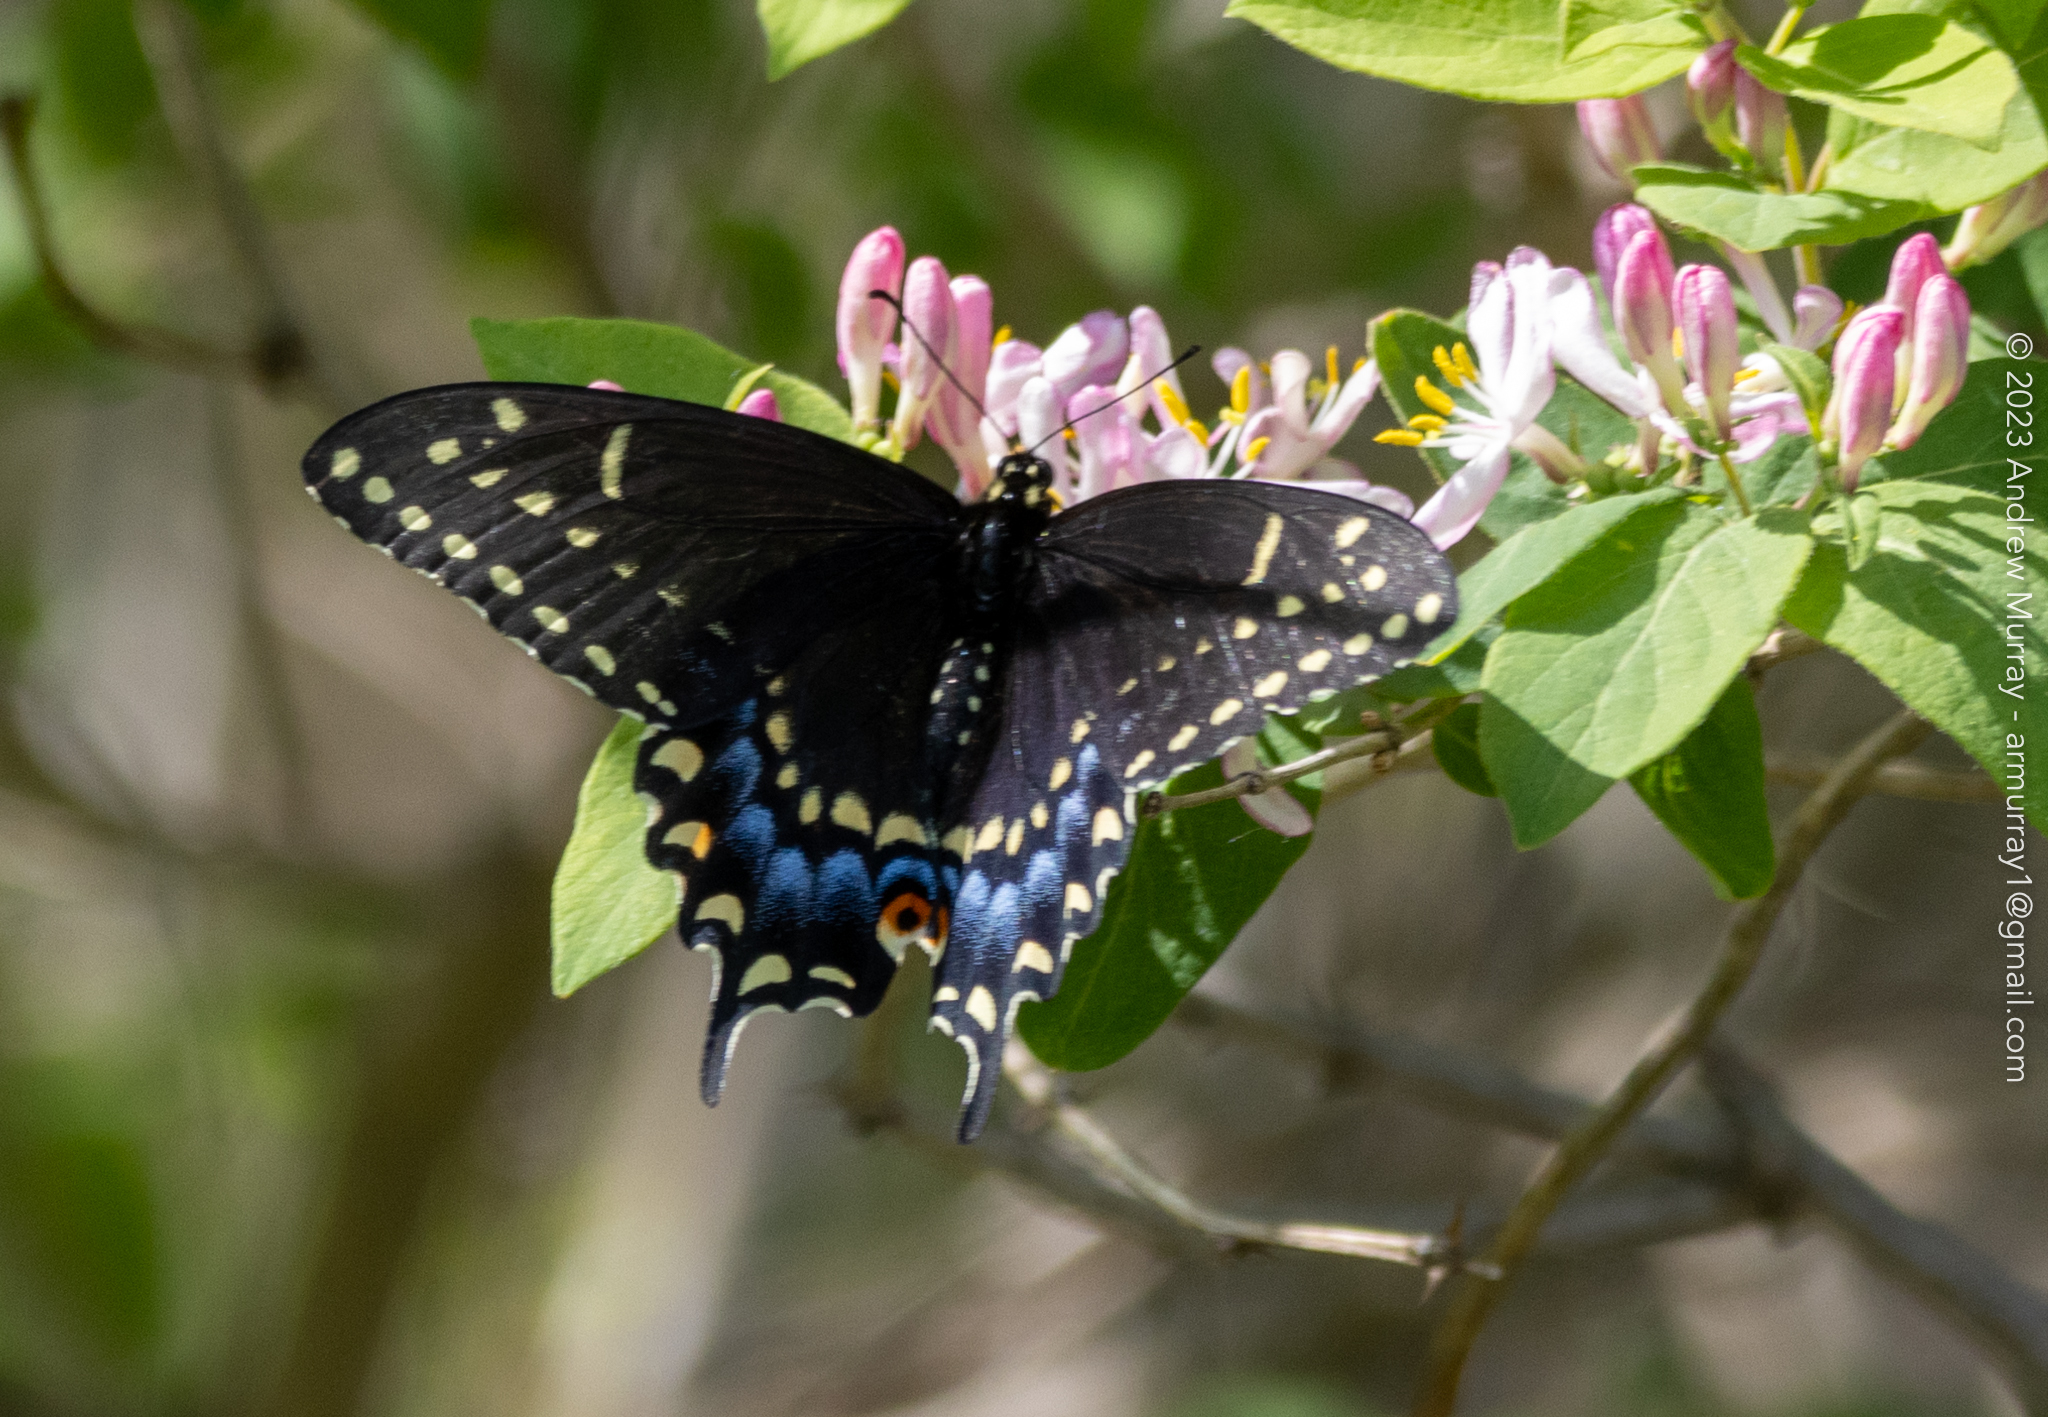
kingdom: Animalia
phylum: Arthropoda
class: Insecta
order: Lepidoptera
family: Papilionidae
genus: Papilio
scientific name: Papilio polyxenes
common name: Black swallowtail
